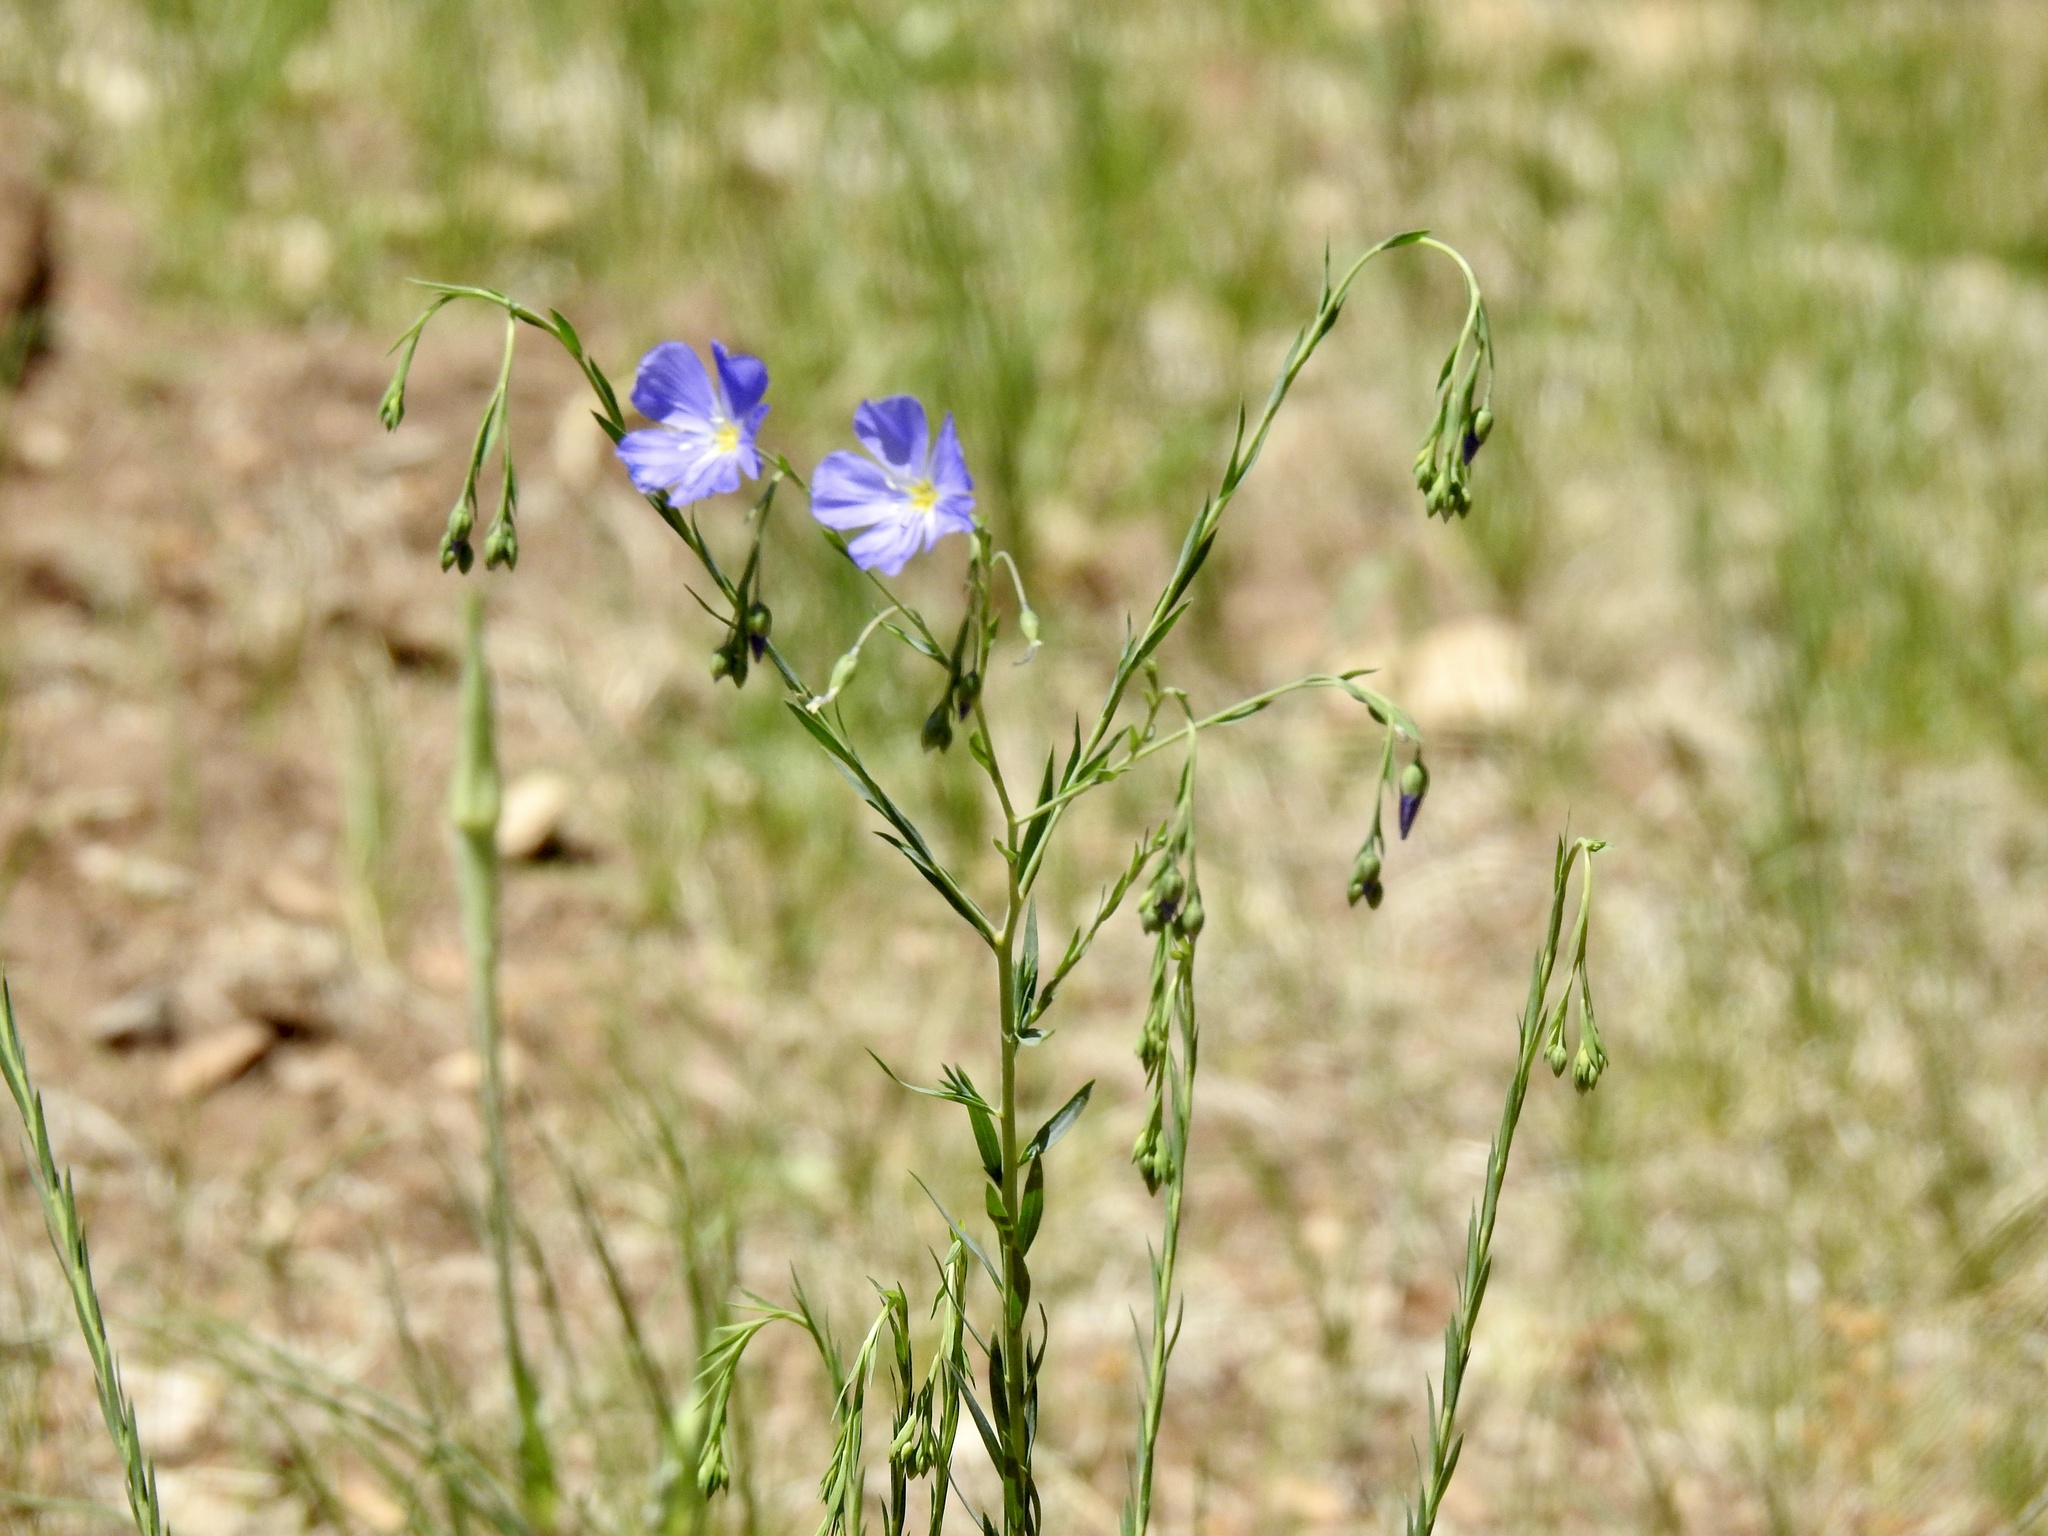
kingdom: Plantae
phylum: Tracheophyta
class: Magnoliopsida
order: Malpighiales
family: Linaceae
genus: Linum
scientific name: Linum lewisii
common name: Prairie flax
